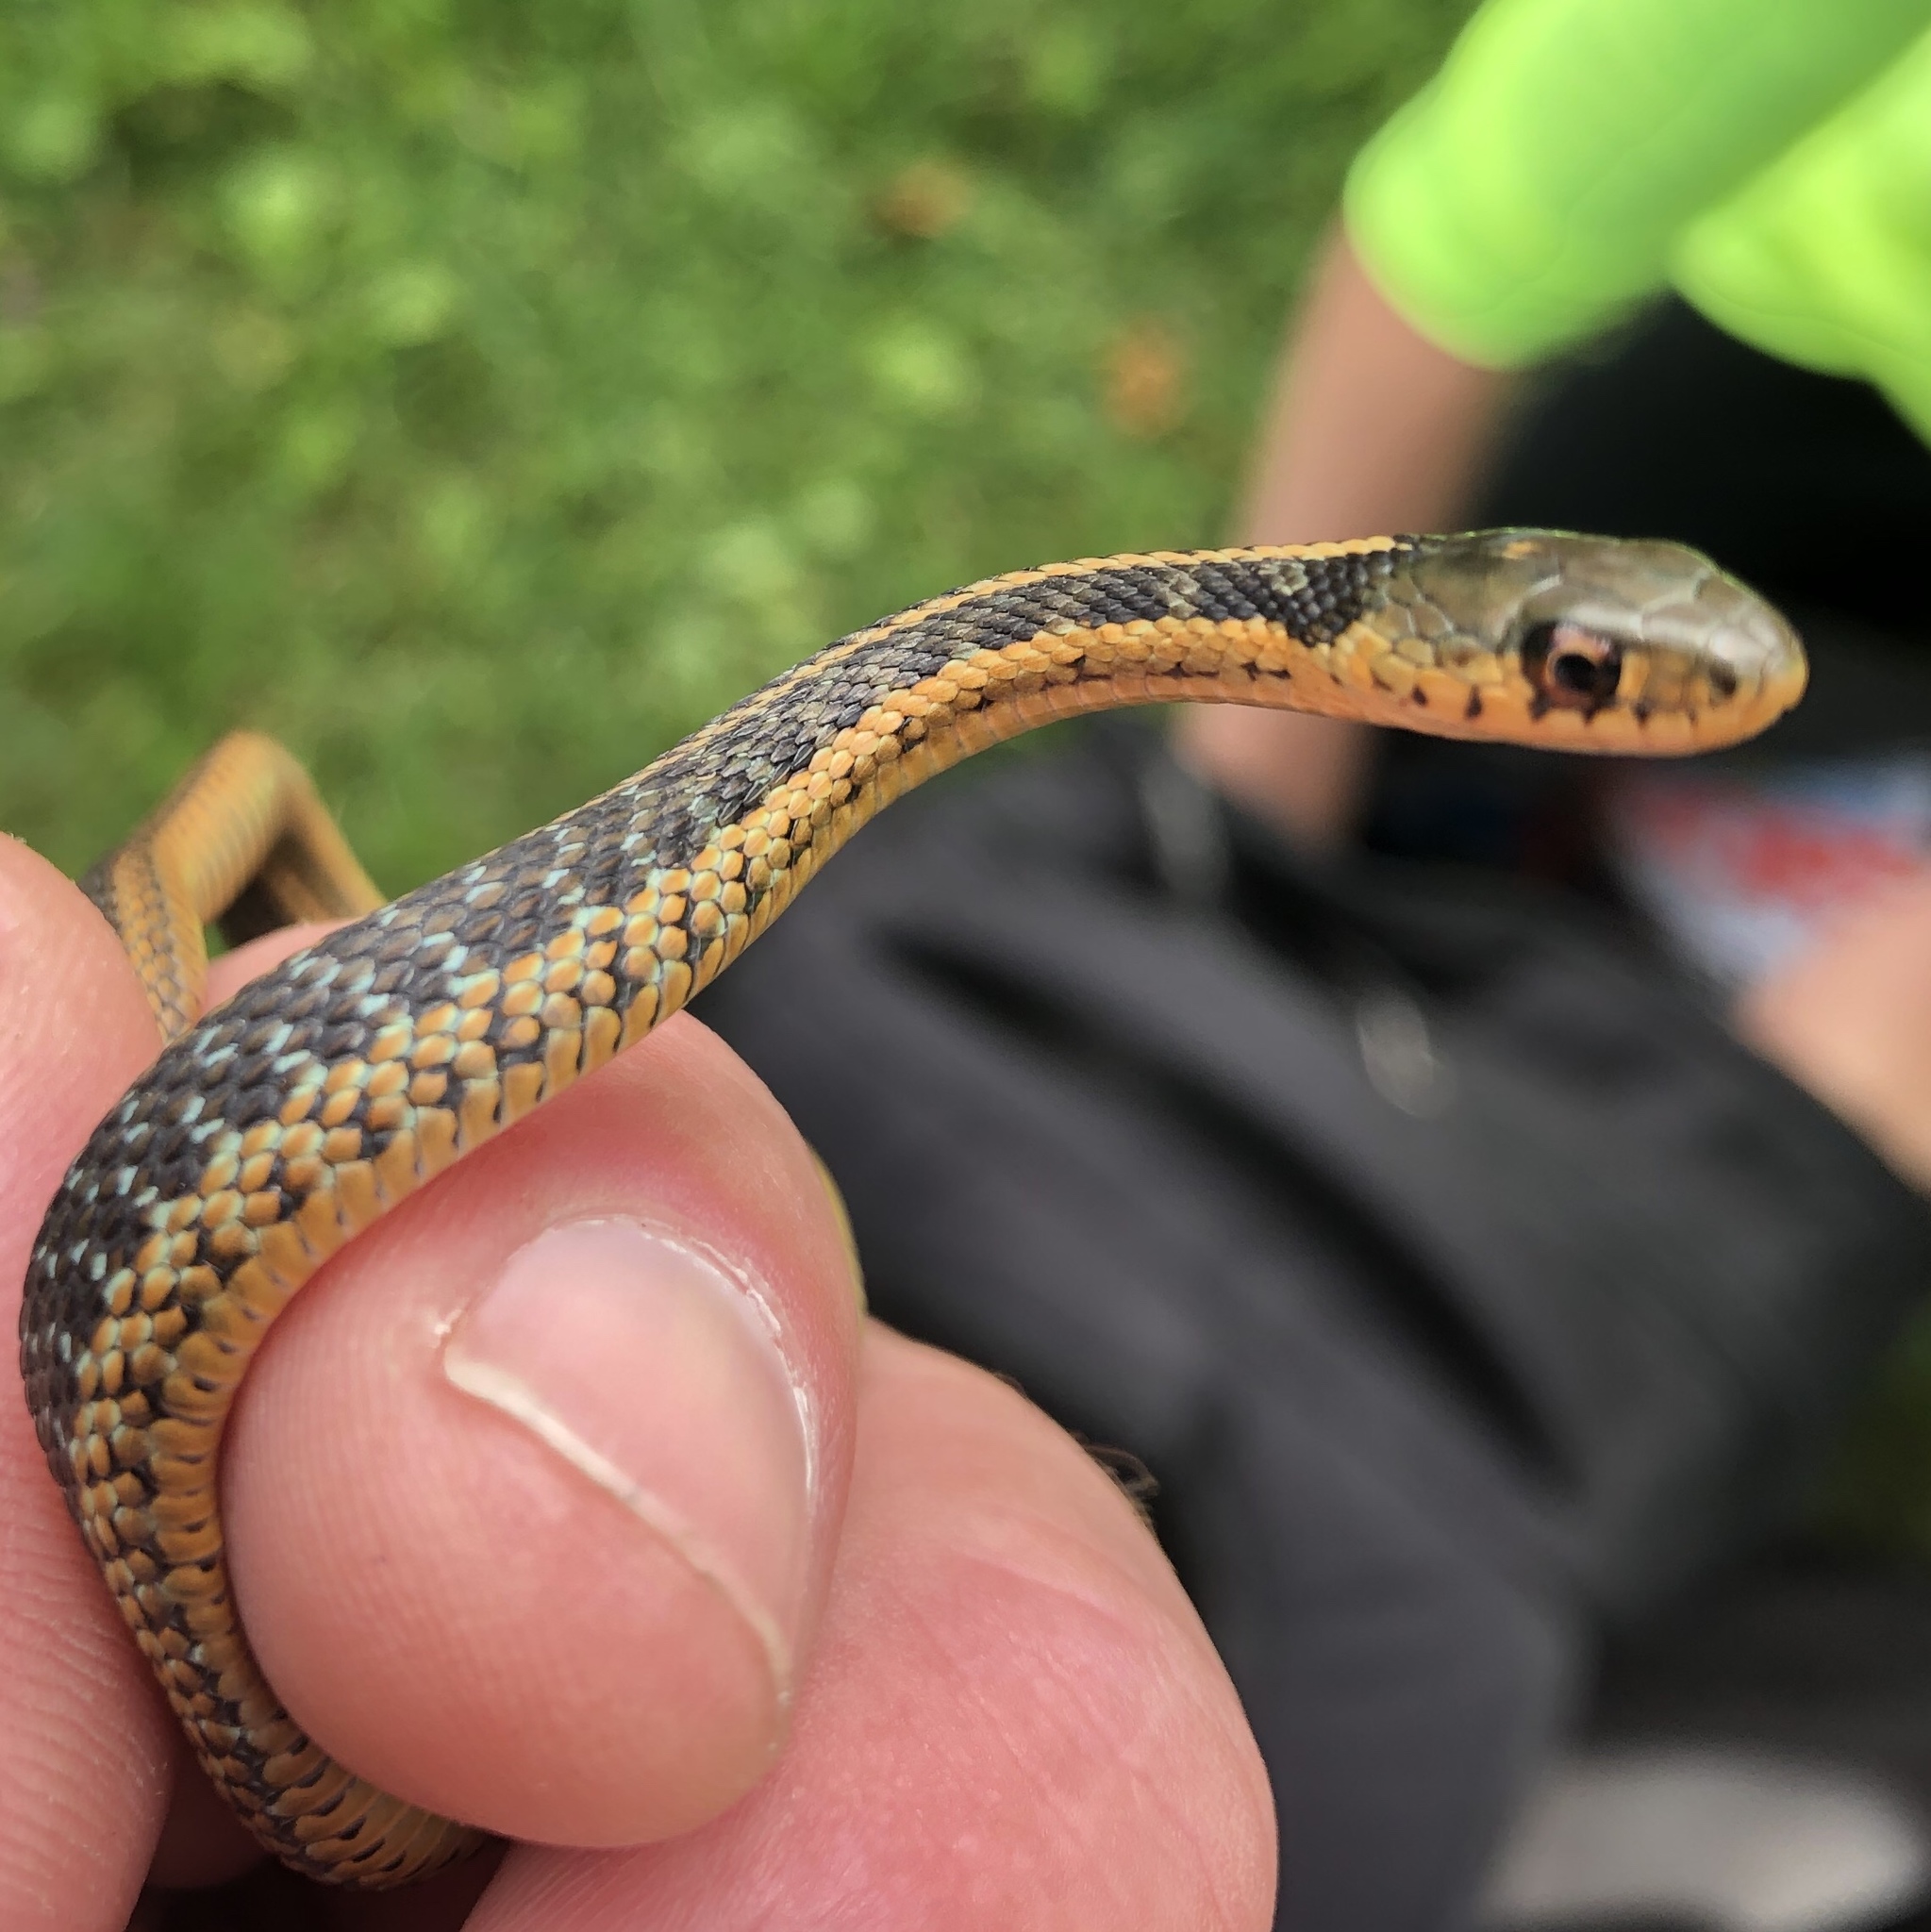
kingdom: Animalia
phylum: Chordata
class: Squamata
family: Colubridae
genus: Thamnophis
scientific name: Thamnophis sirtalis
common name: Common garter snake
